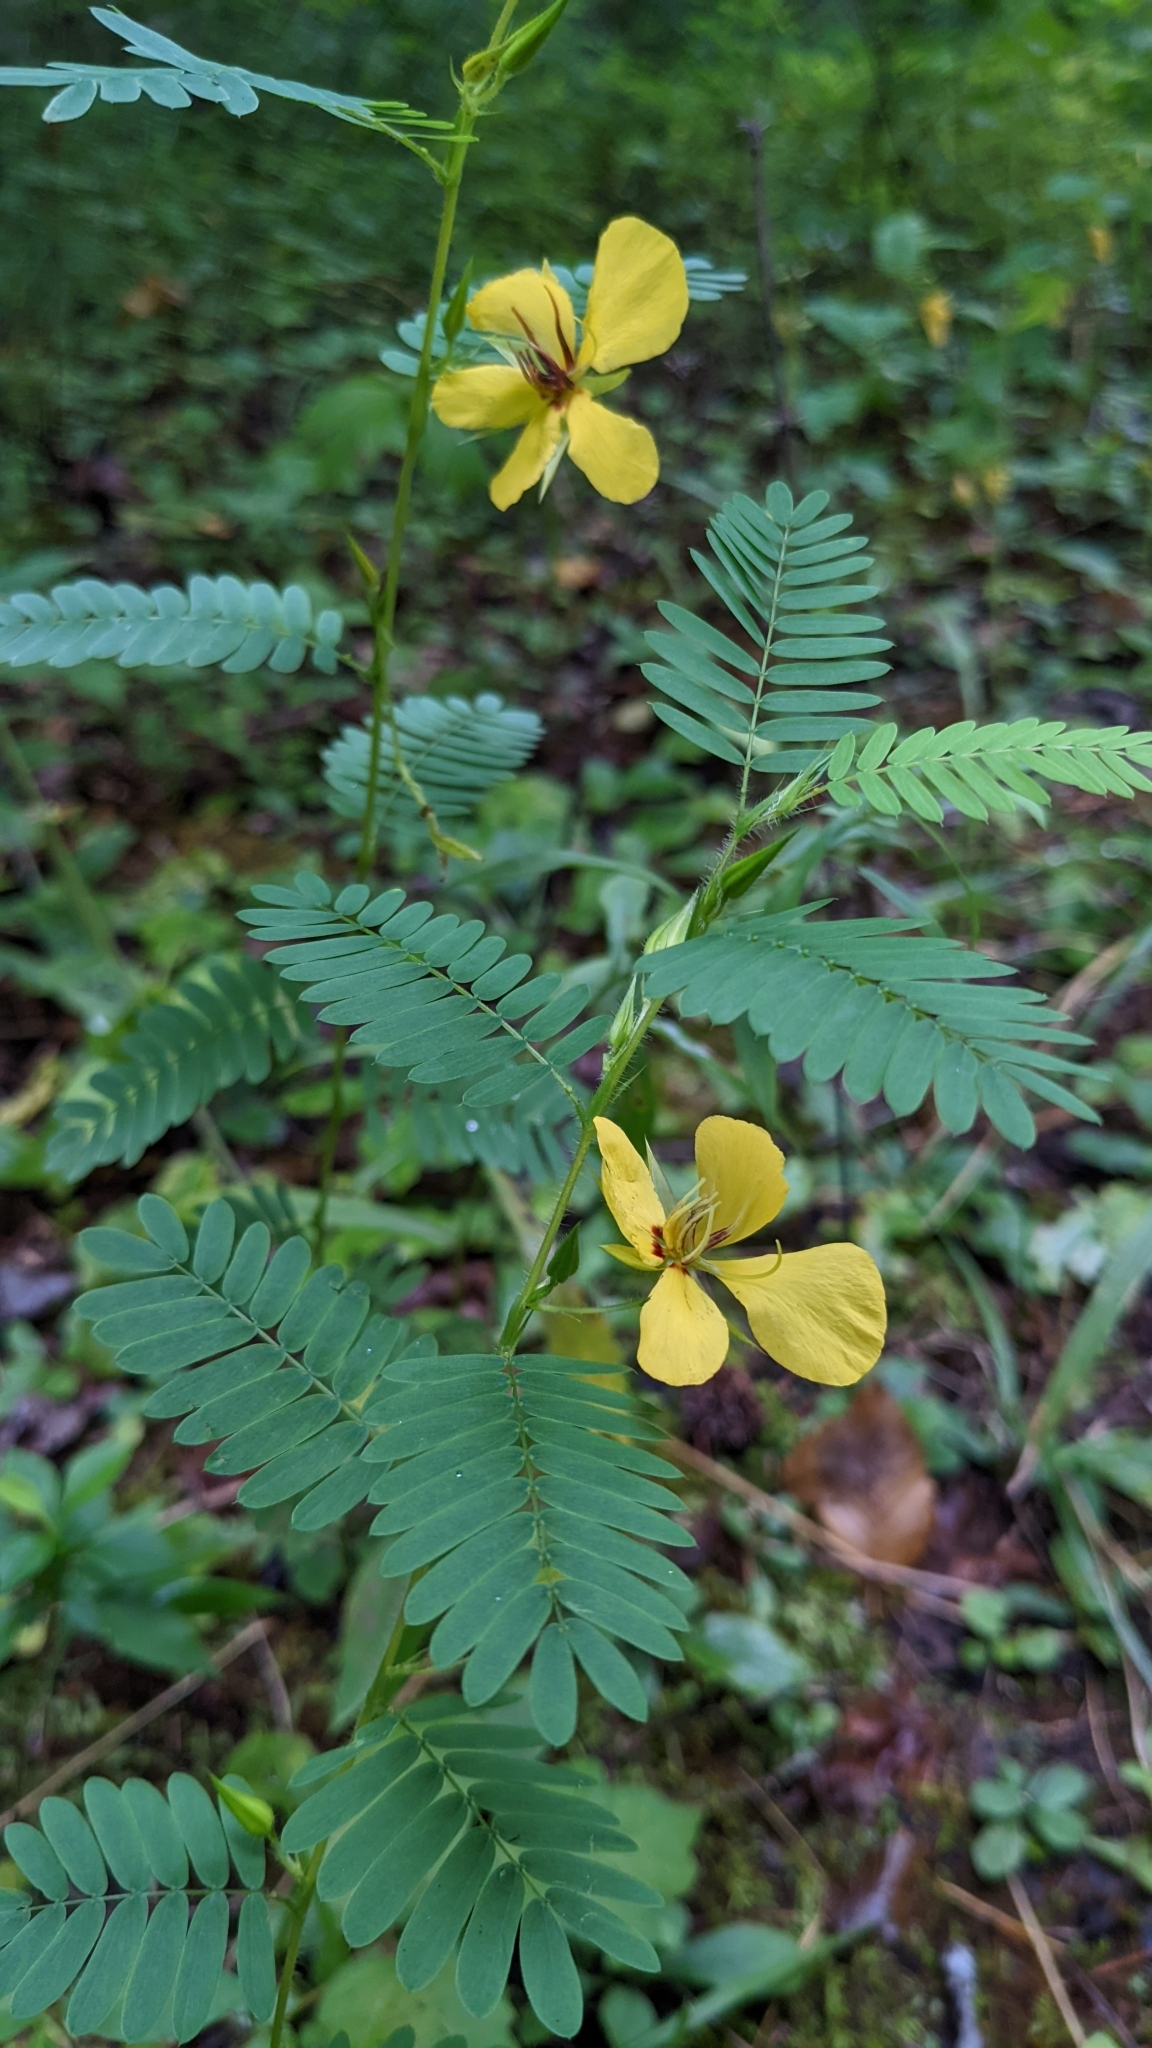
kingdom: Plantae
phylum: Tracheophyta
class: Magnoliopsida
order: Fabales
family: Fabaceae
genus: Chamaecrista
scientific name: Chamaecrista fasciculata
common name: Golden cassia
